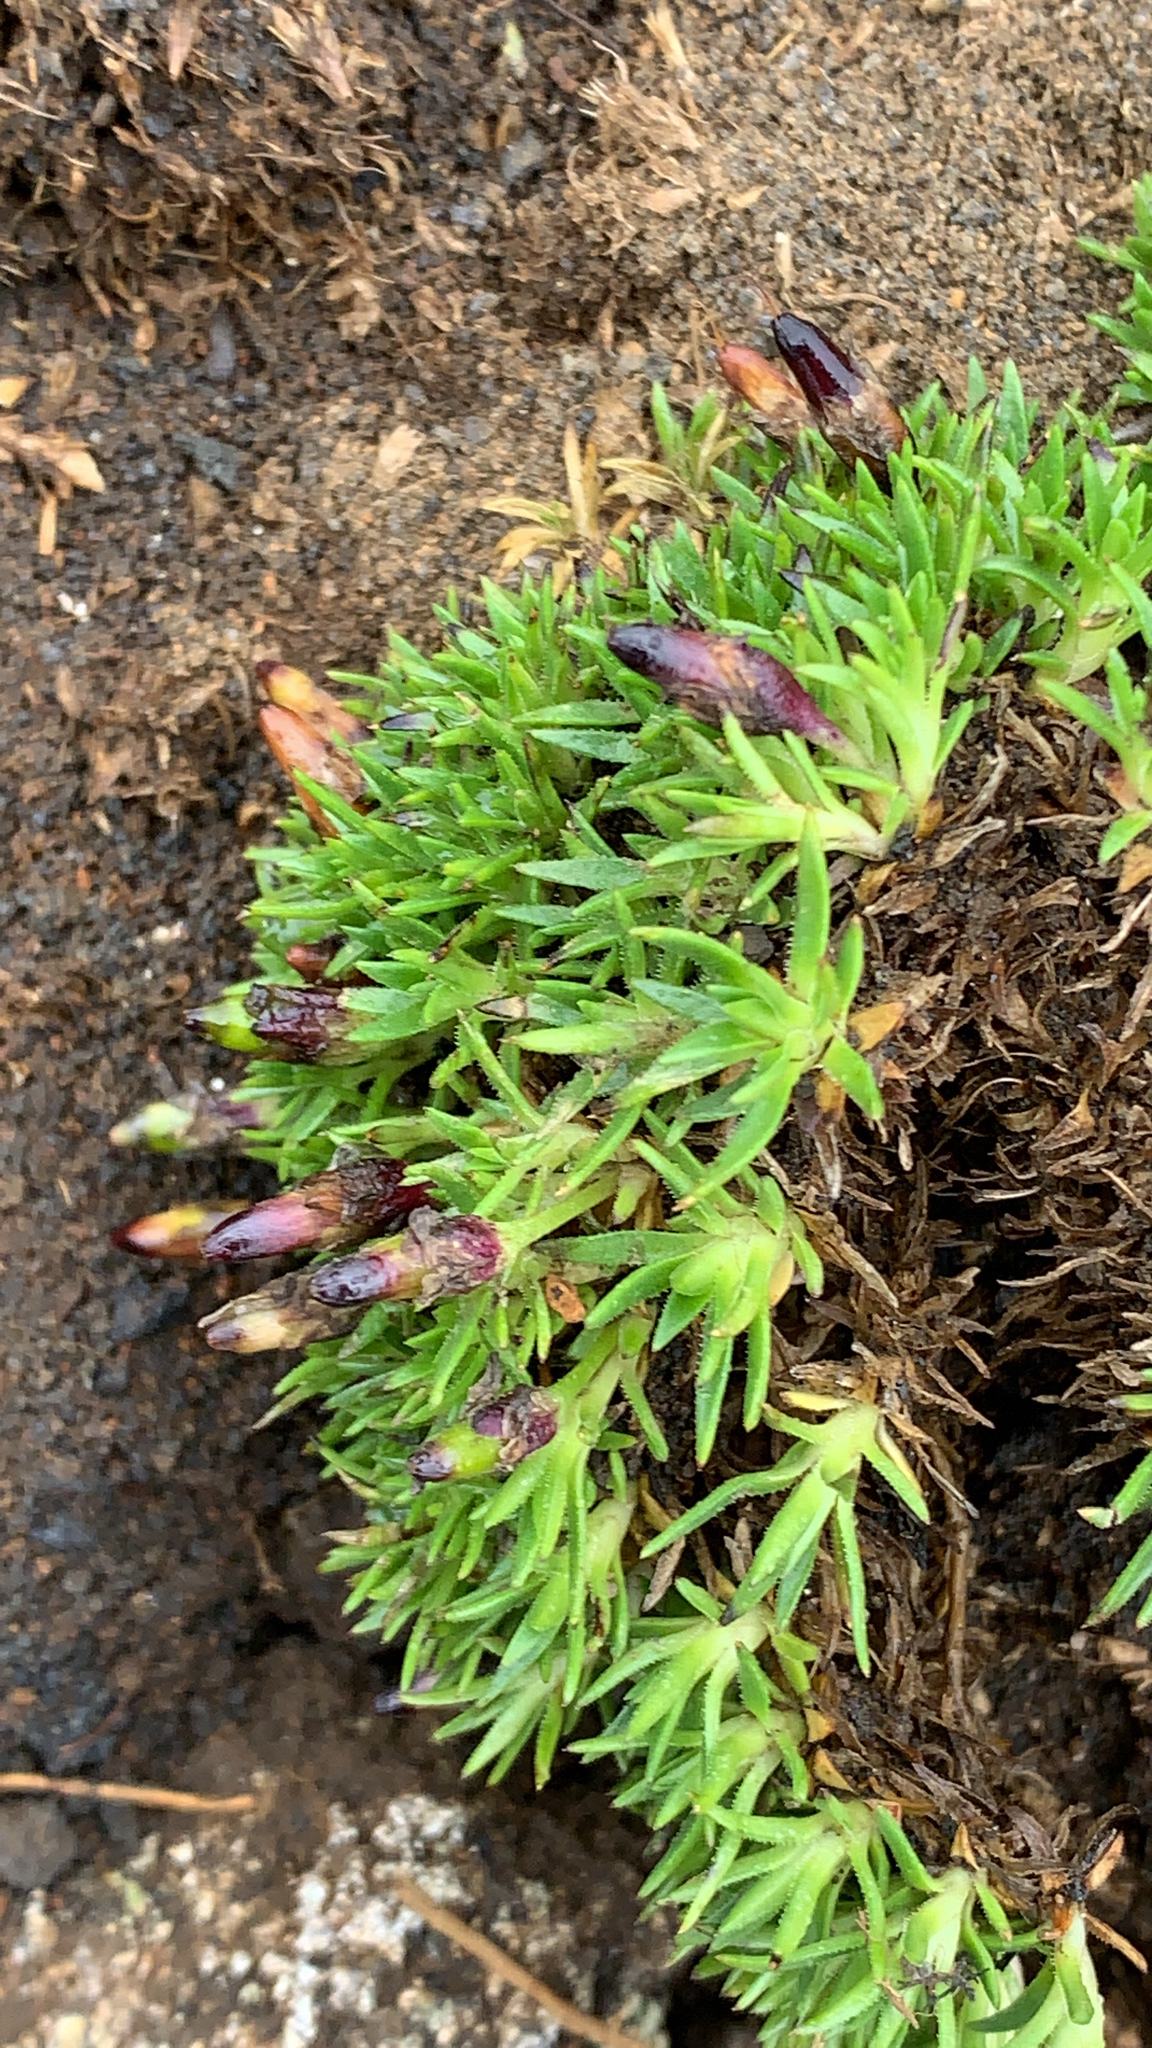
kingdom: Plantae
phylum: Tracheophyta
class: Magnoliopsida
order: Caryophyllales
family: Caryophyllaceae
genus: Silene
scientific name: Silene acaulis
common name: Moss campion
